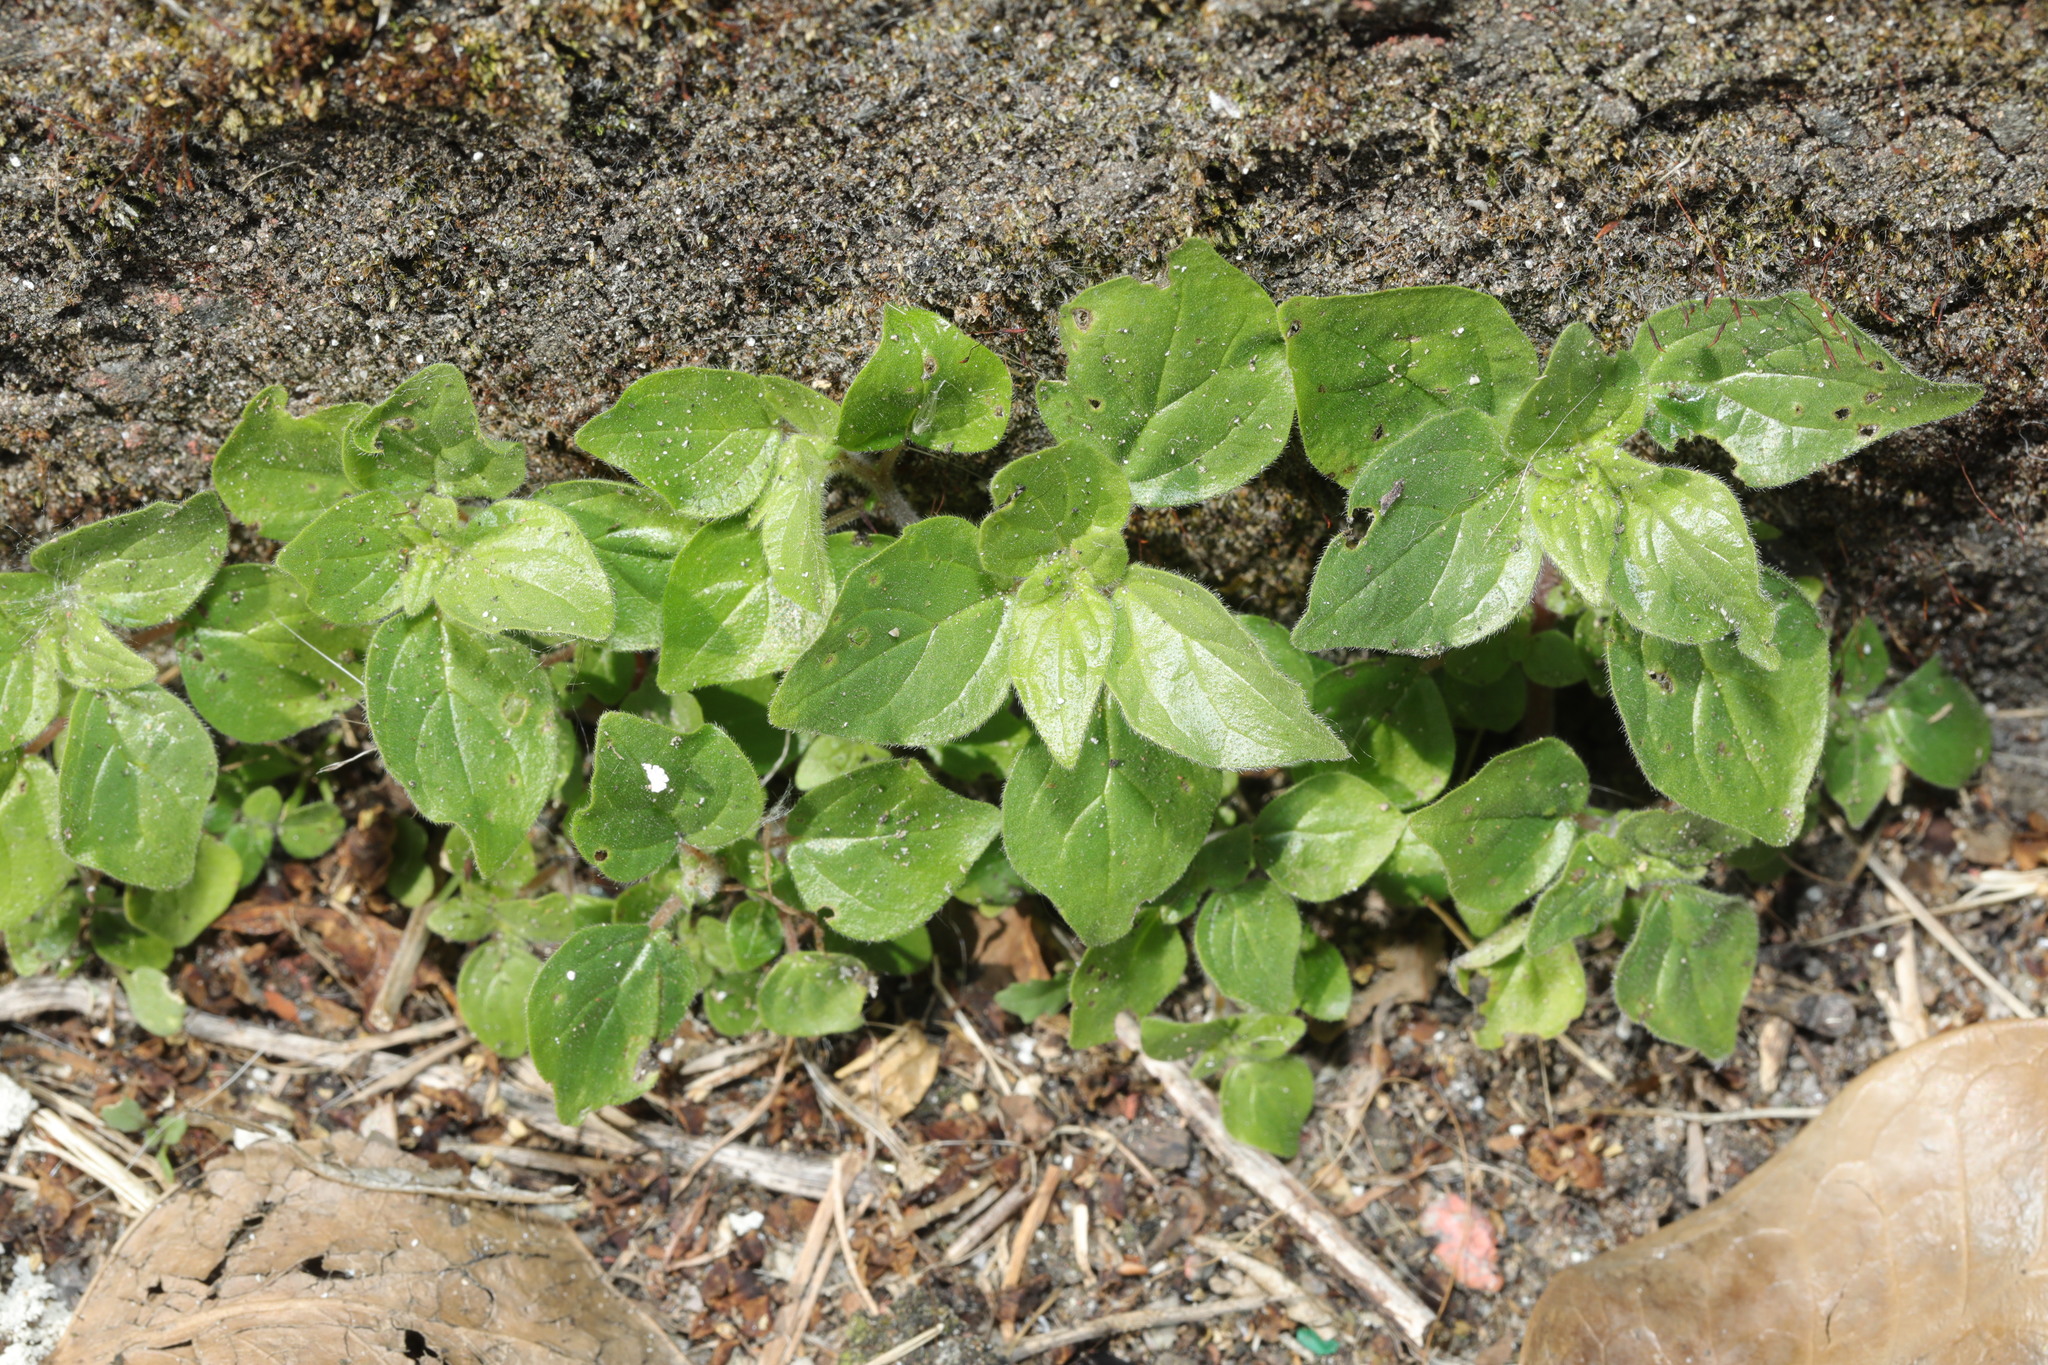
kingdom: Plantae
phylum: Tracheophyta
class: Magnoliopsida
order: Rosales
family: Urticaceae
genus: Parietaria
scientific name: Parietaria judaica
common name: Pellitory-of-the-wall
